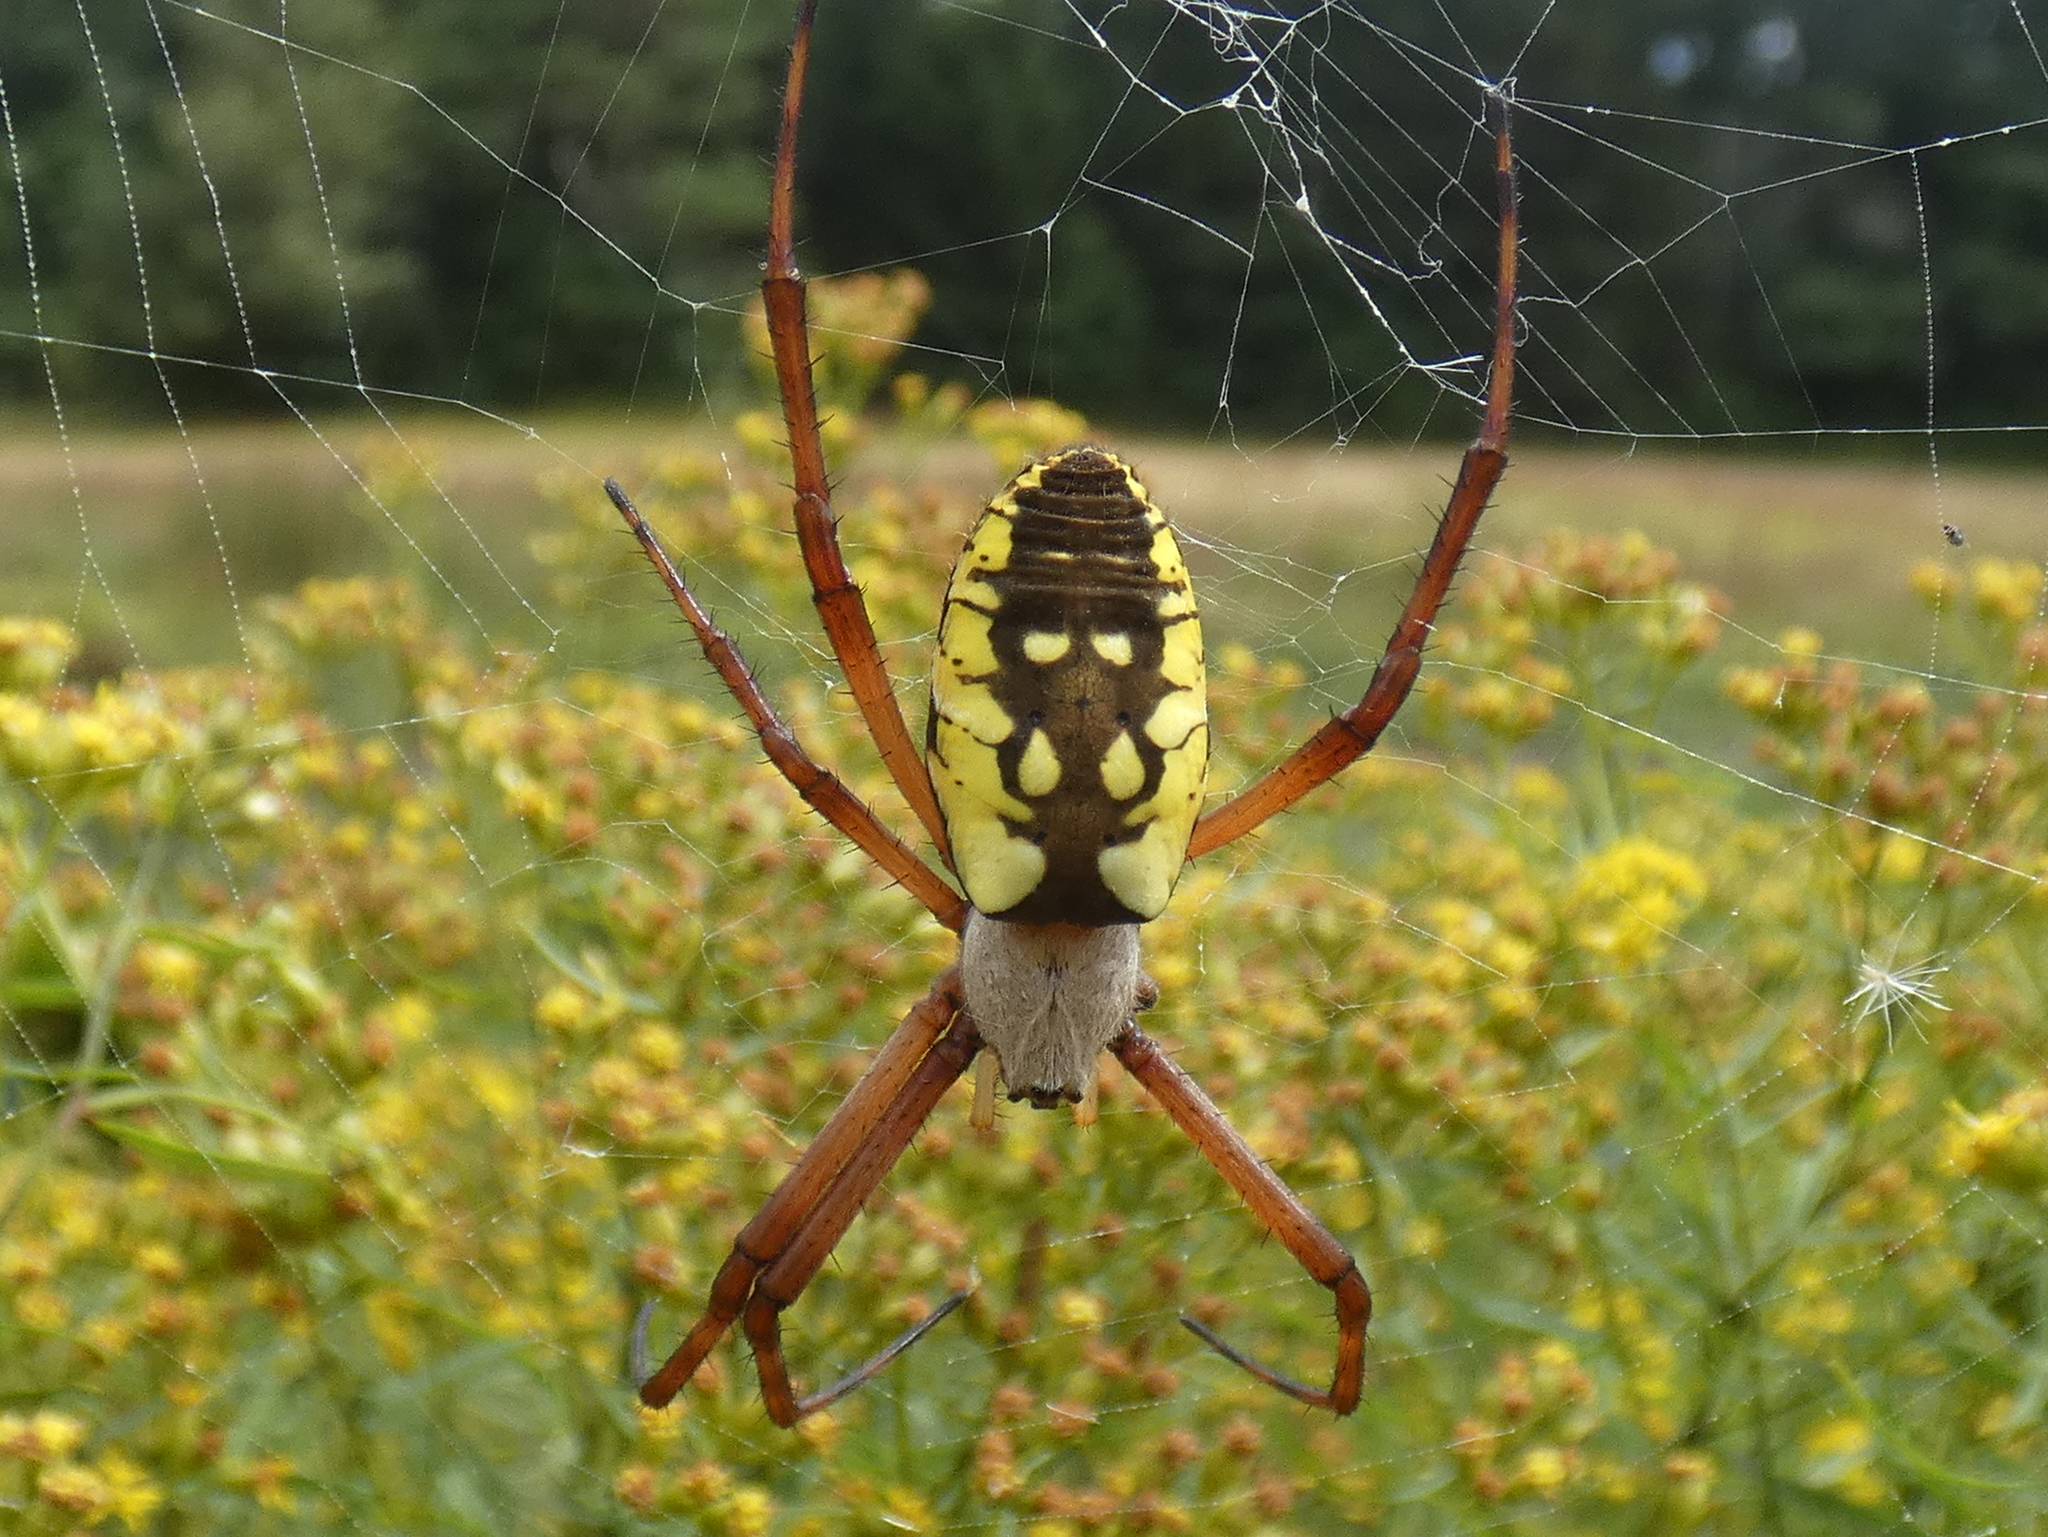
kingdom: Animalia
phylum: Arthropoda
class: Arachnida
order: Araneae
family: Araneidae
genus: Argiope
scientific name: Argiope aurantia
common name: Orb weavers
